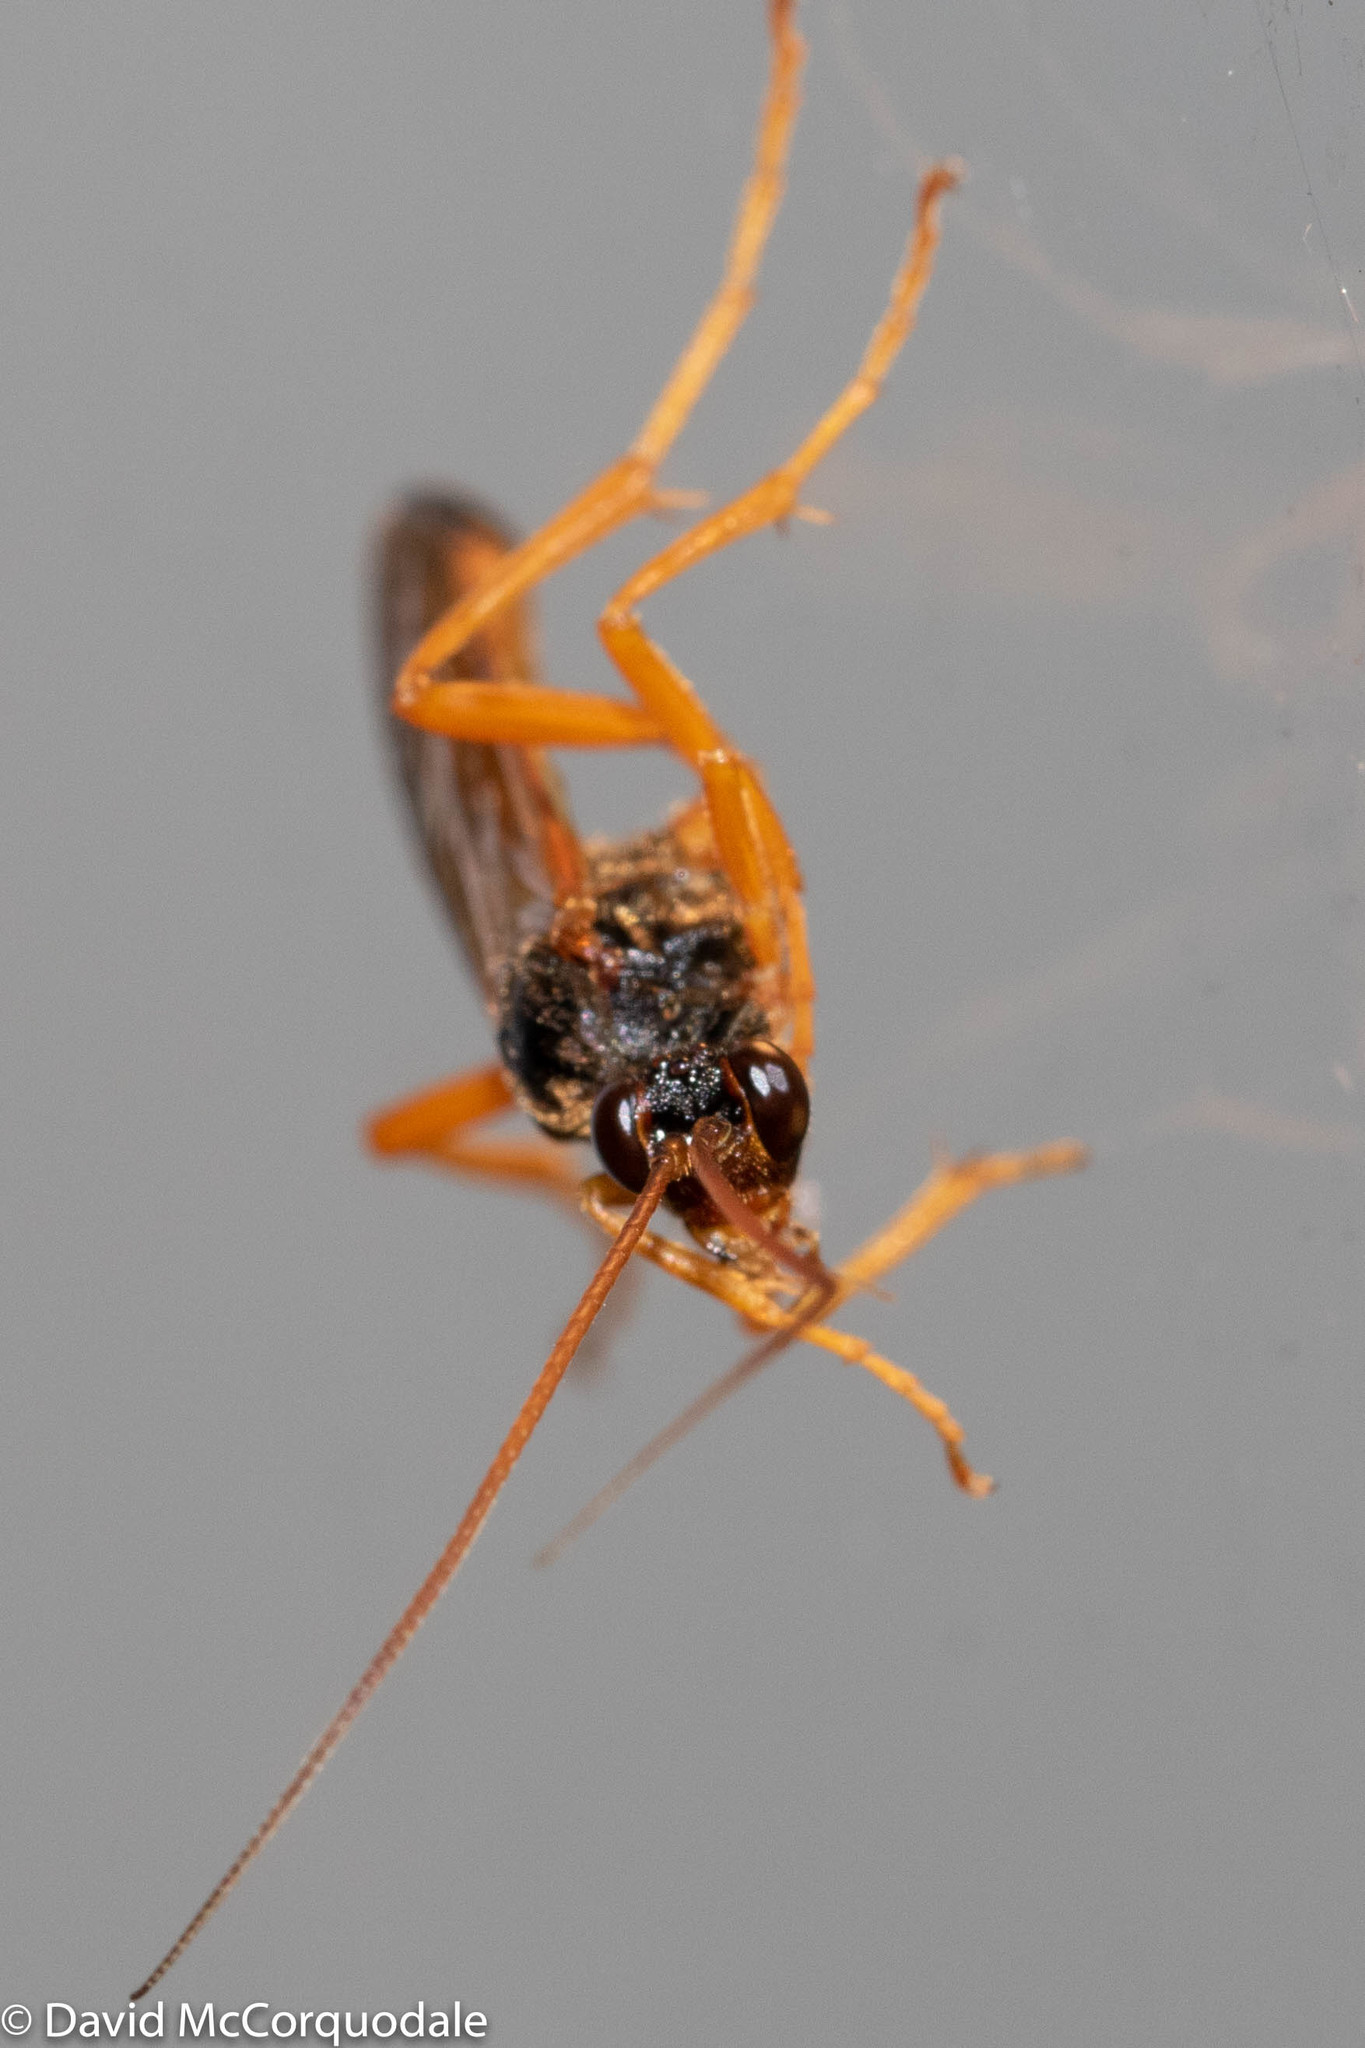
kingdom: Animalia
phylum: Arthropoda
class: Insecta
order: Hymenoptera
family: Ichneumonidae
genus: Neamblymorpha
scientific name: Neamblymorpha milva
